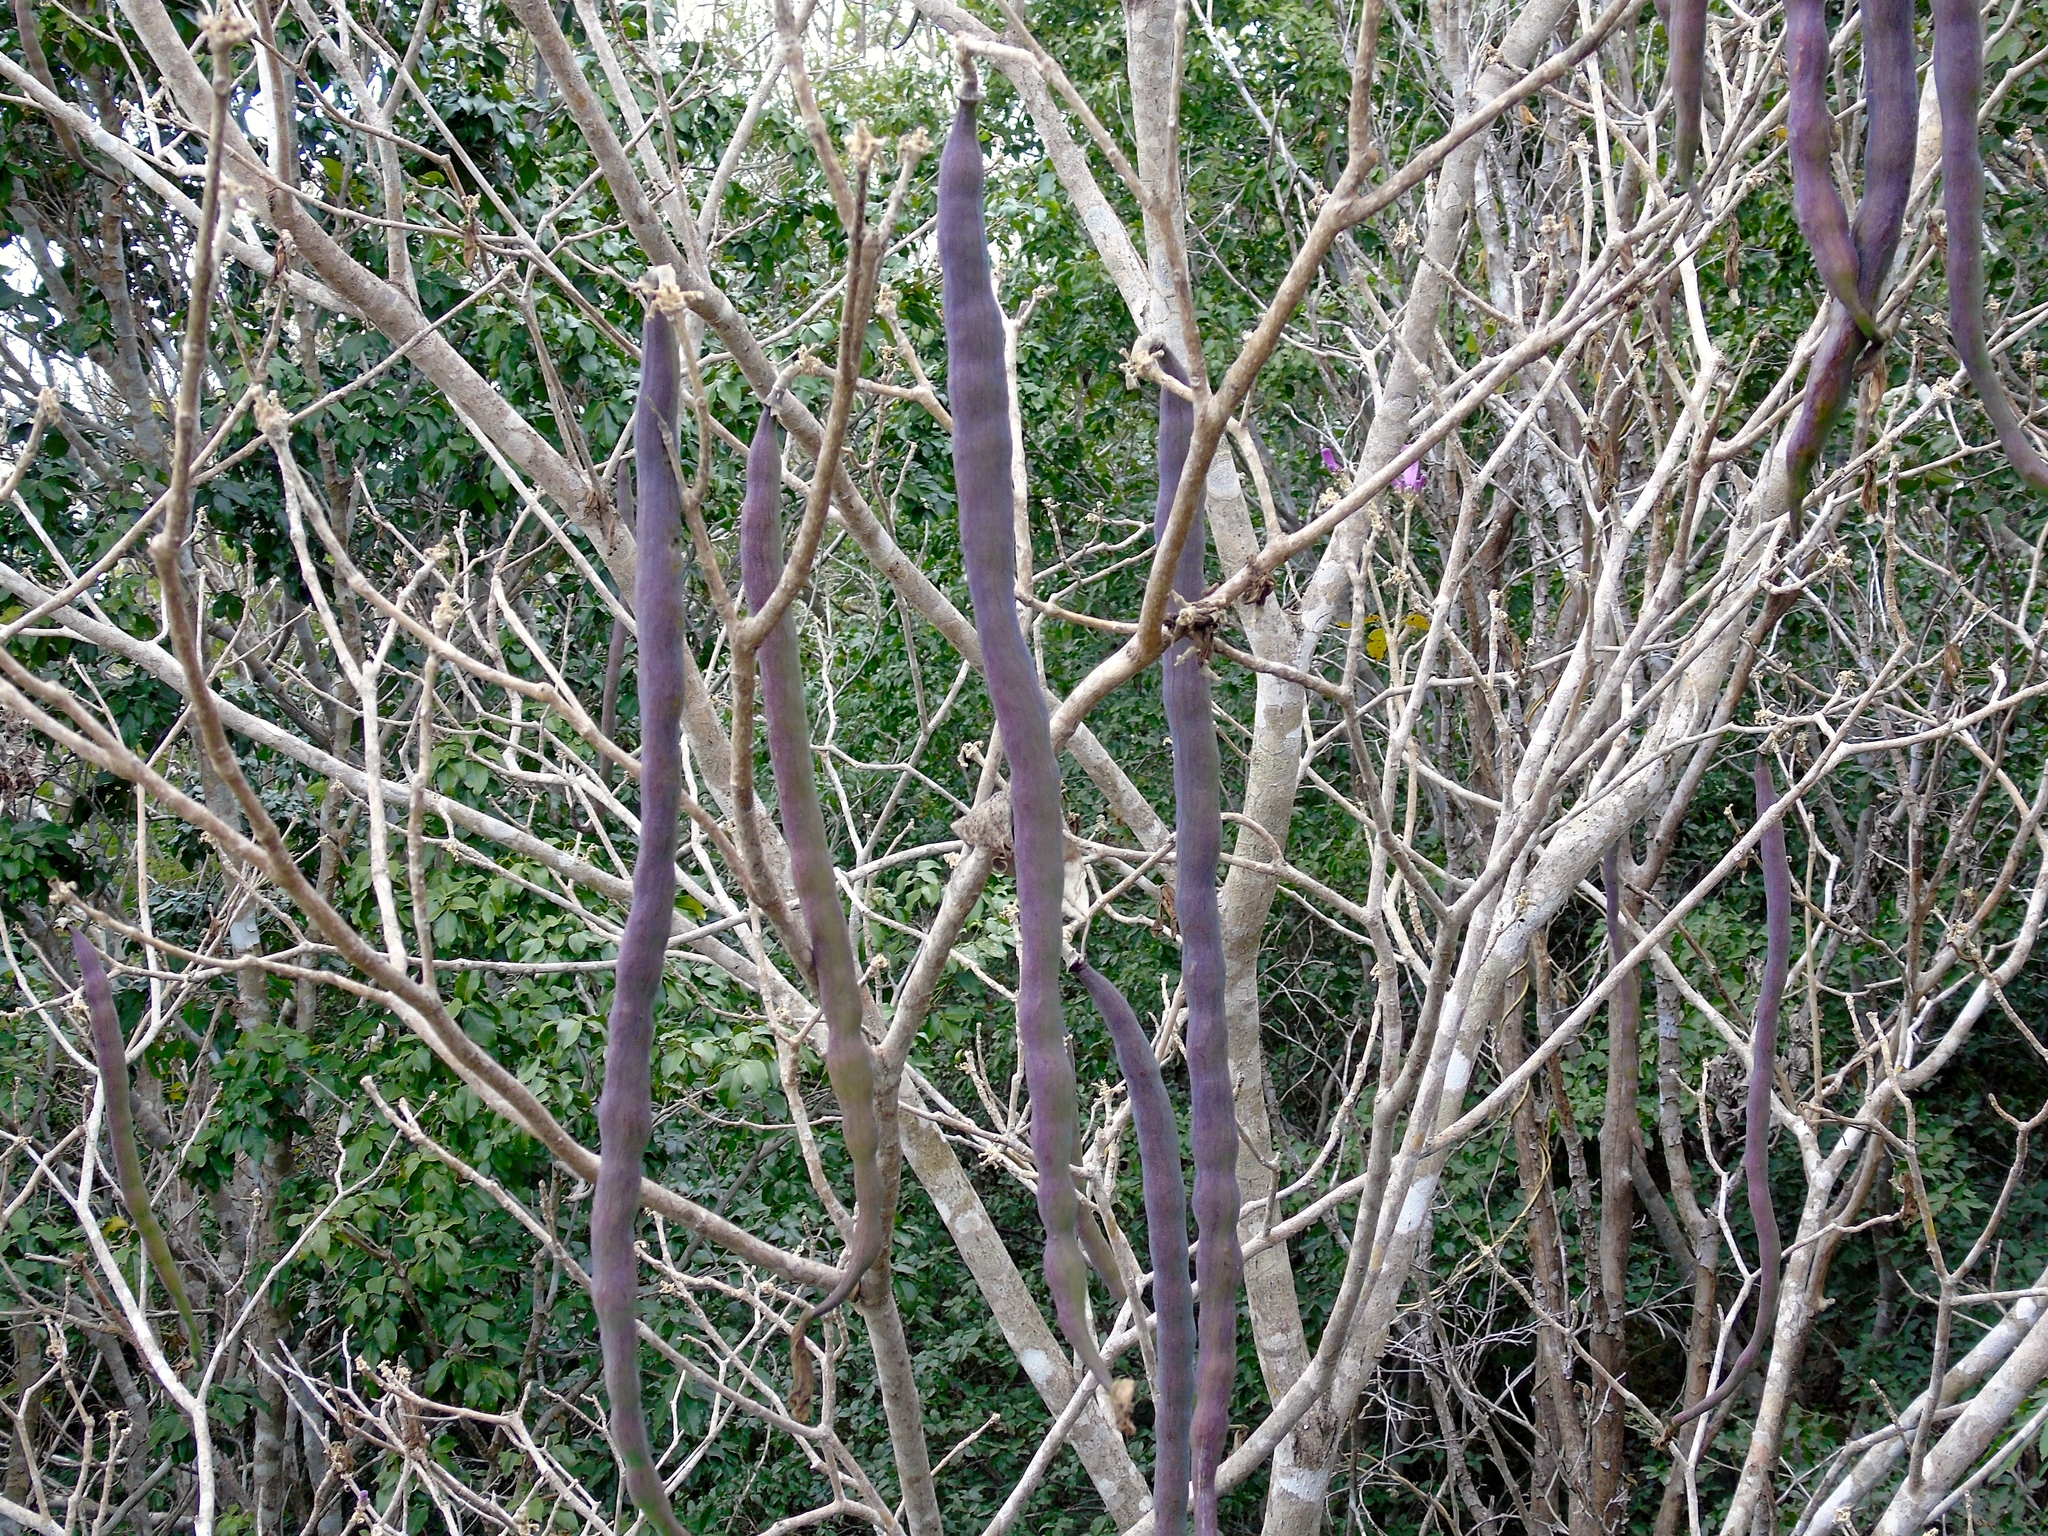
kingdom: Plantae
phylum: Tracheophyta
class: Magnoliopsida
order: Lamiales
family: Bignoniaceae
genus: Handroanthus
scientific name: Handroanthus impetiginosum
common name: Pink trumpet tree
